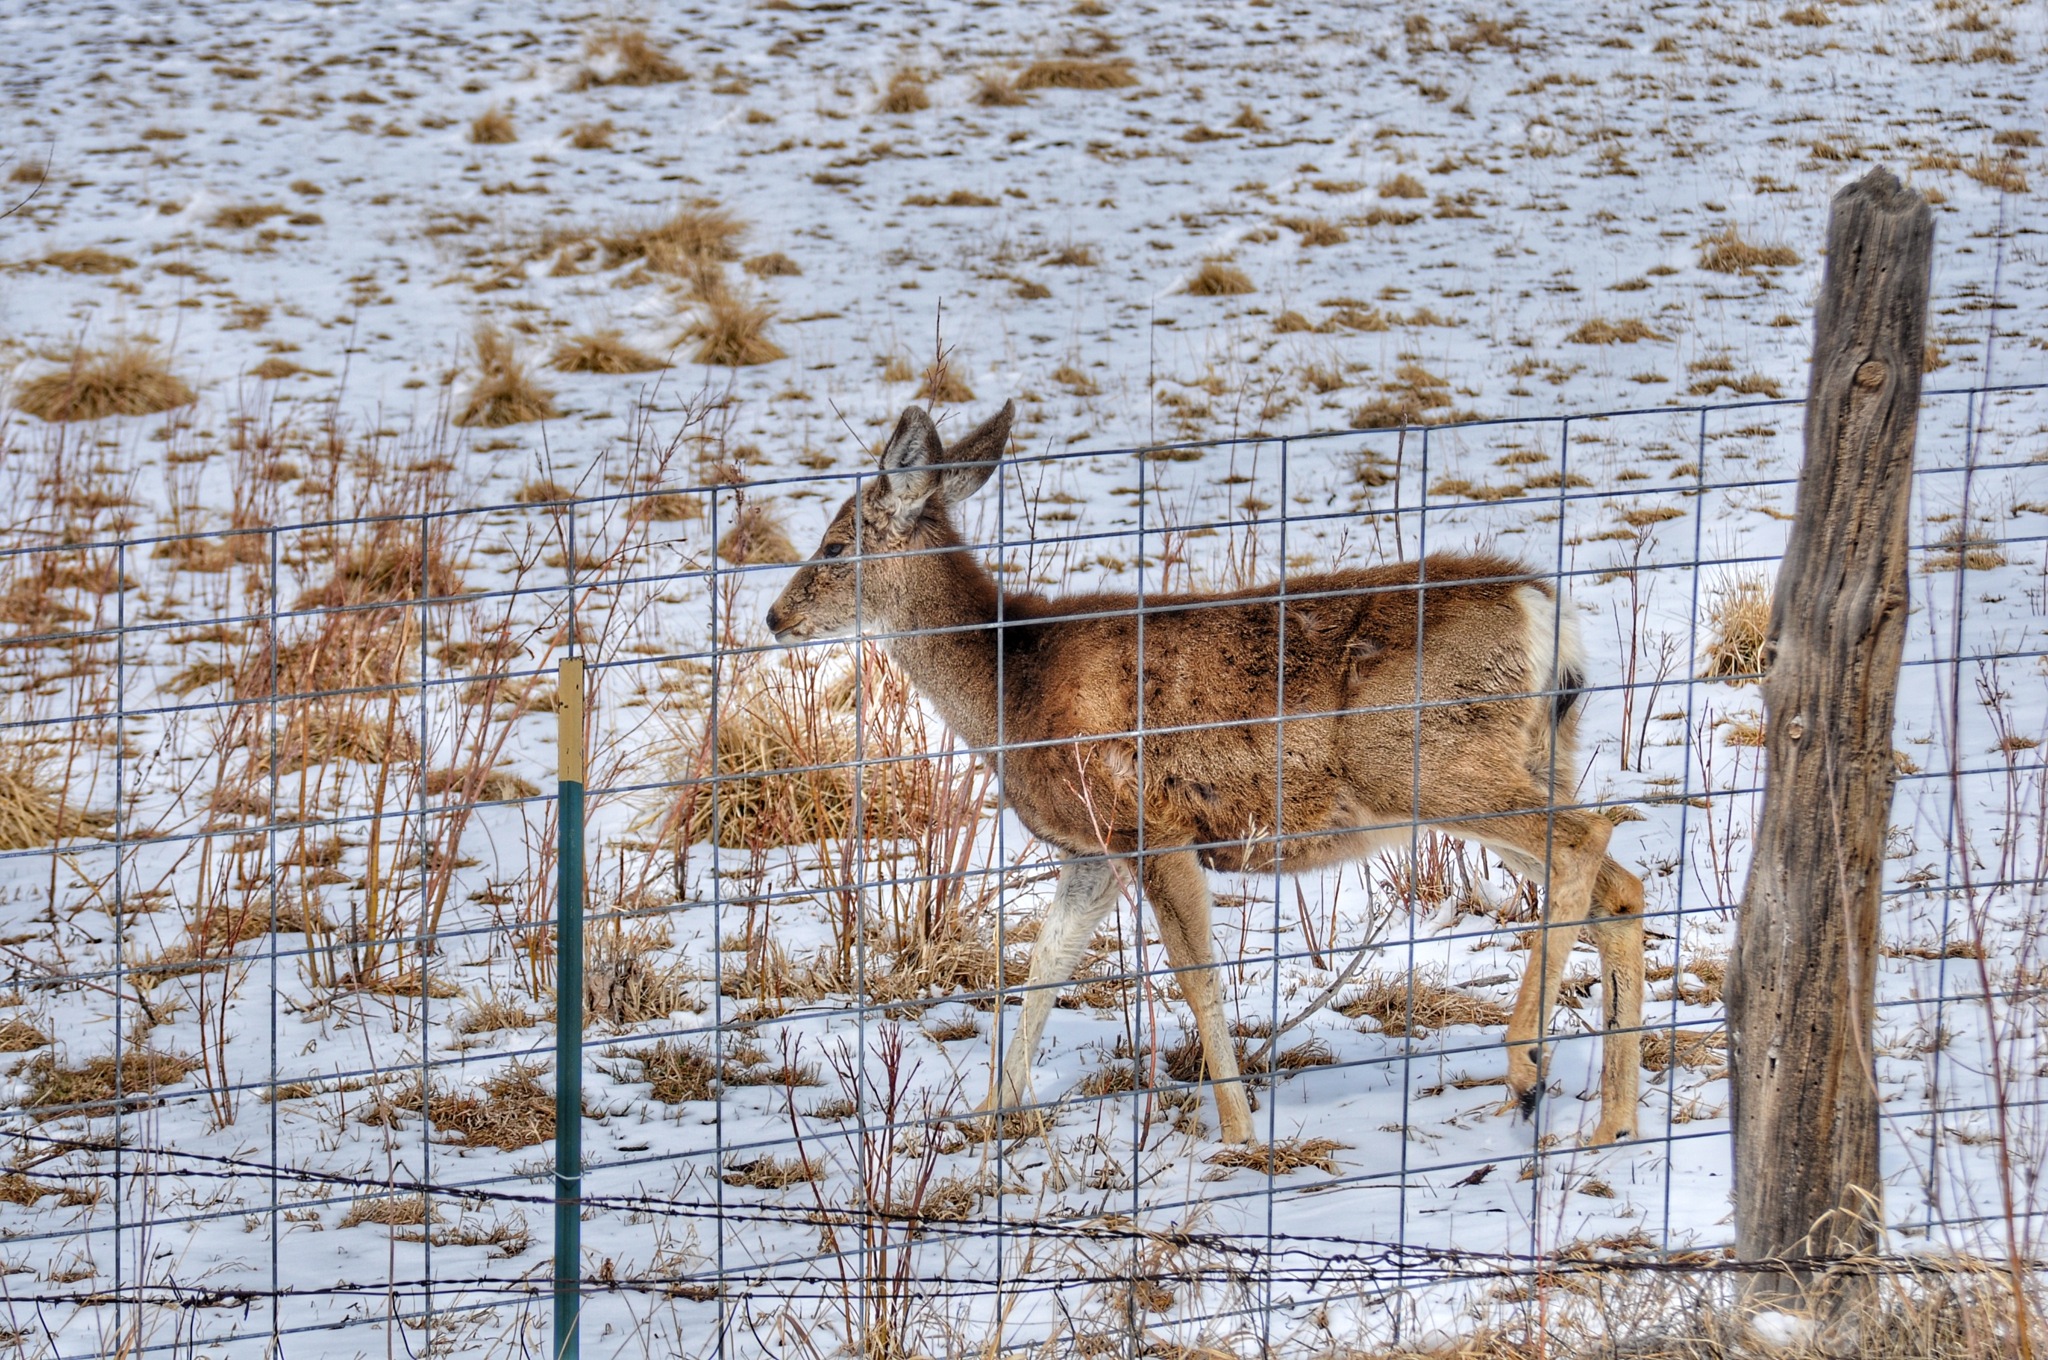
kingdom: Animalia
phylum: Chordata
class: Mammalia
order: Artiodactyla
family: Cervidae
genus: Odocoileus
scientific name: Odocoileus hemionus
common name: Mule deer
